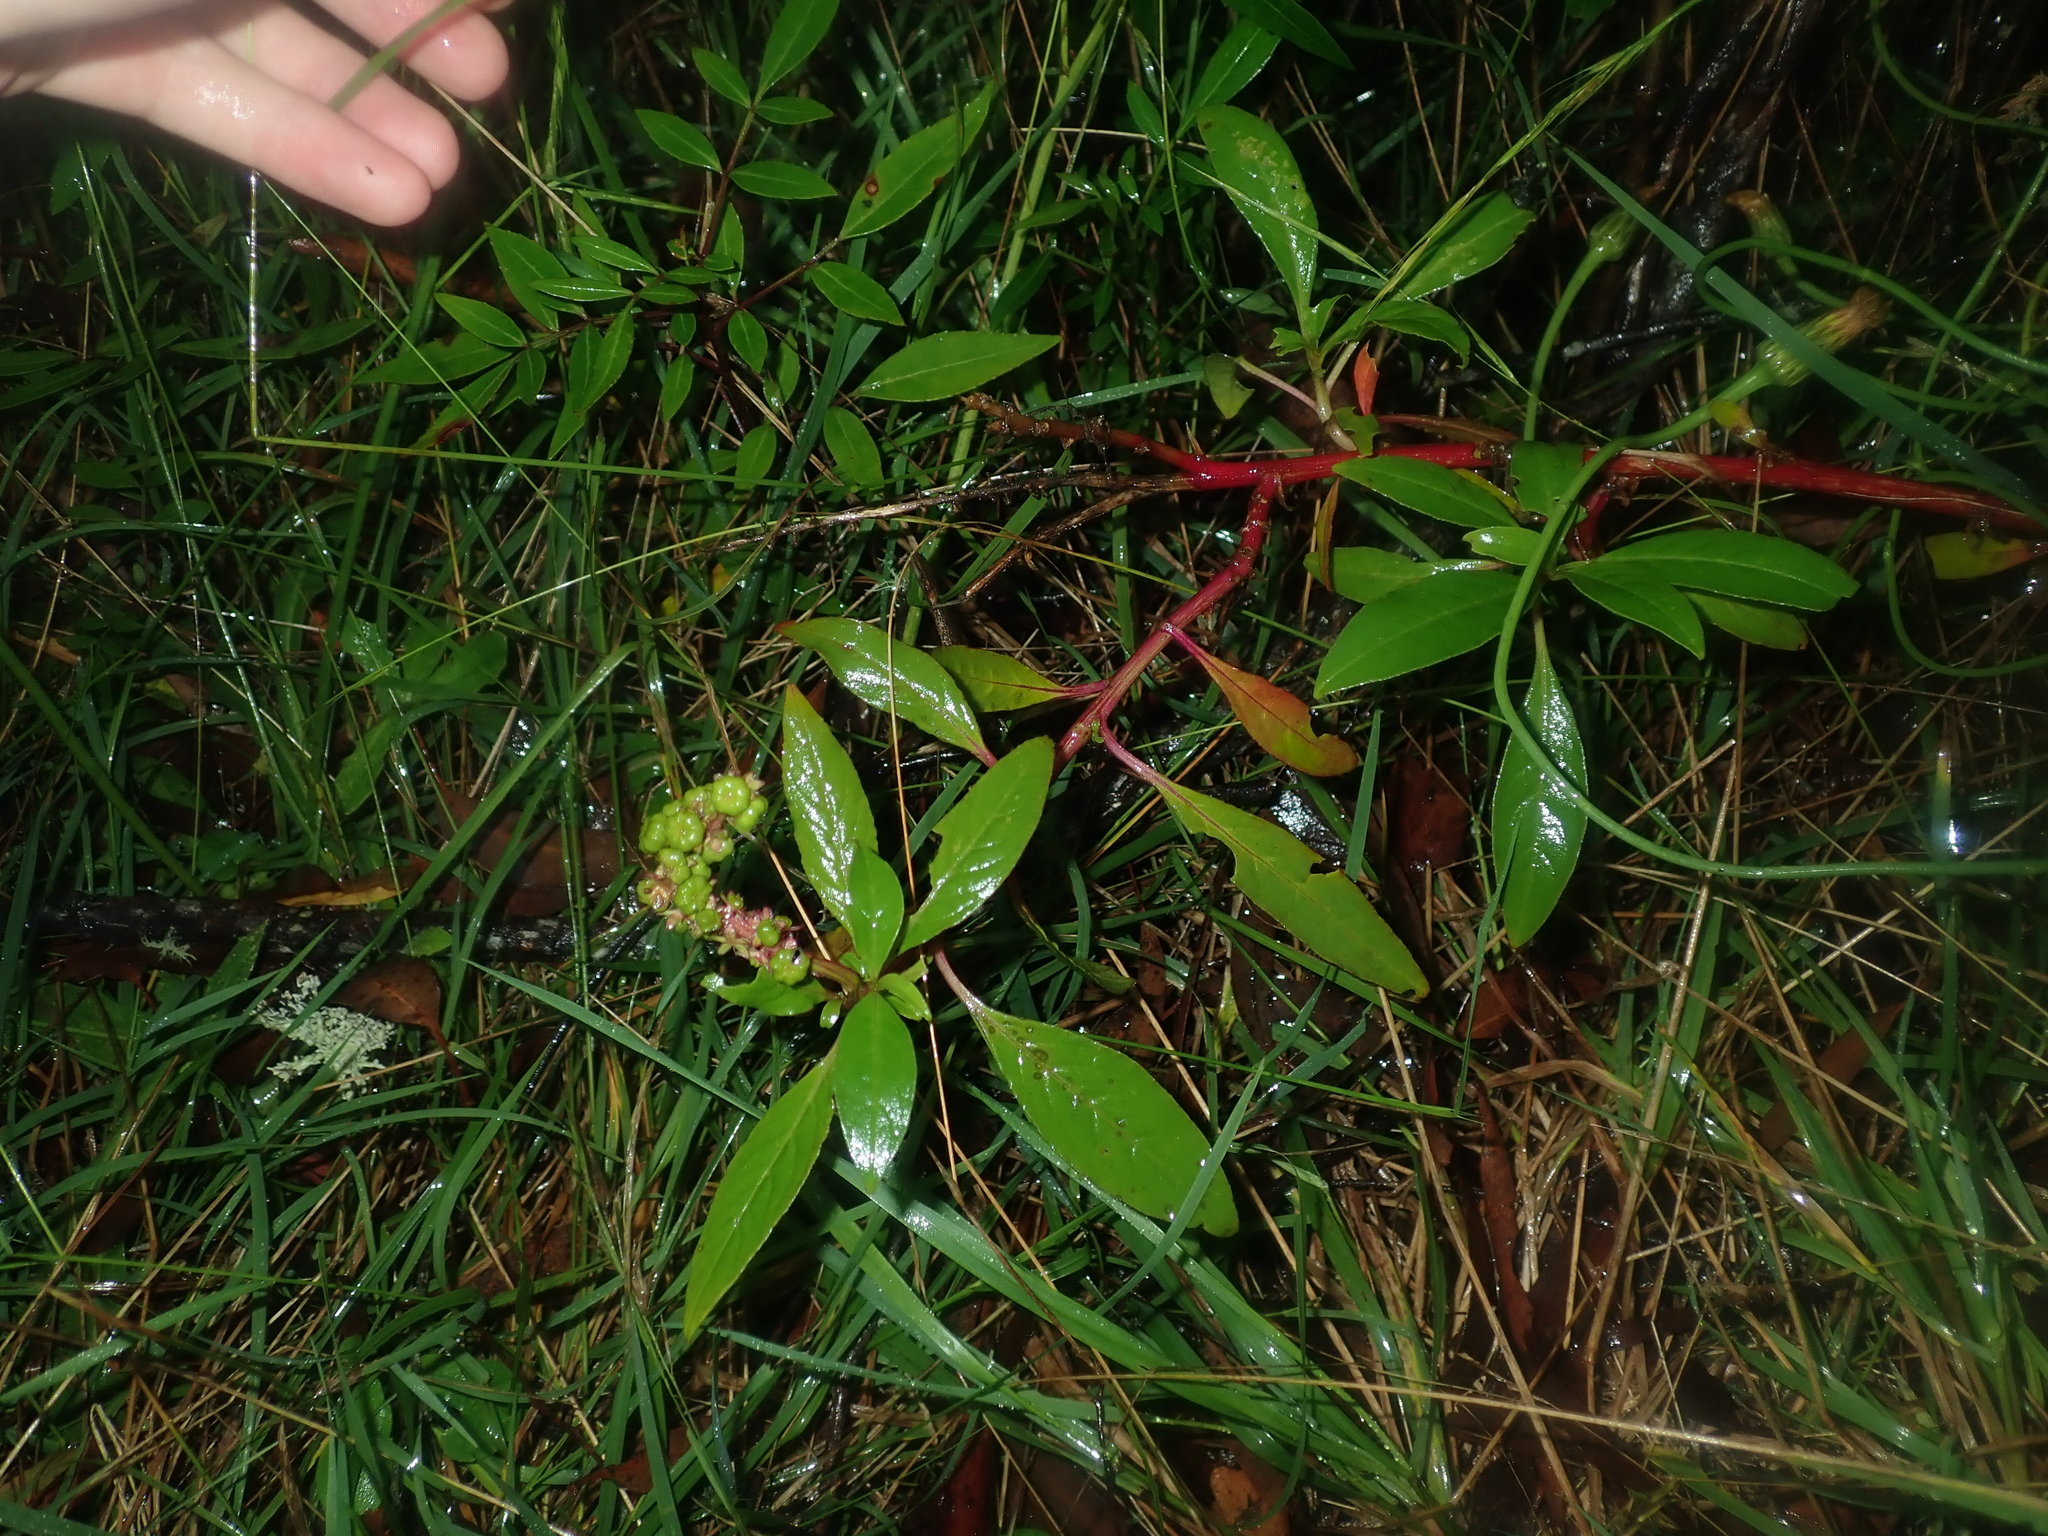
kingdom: Plantae
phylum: Tracheophyta
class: Magnoliopsida
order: Caryophyllales
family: Phytolaccaceae
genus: Phytolacca
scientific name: Phytolacca icosandra
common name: Button pokeweed
